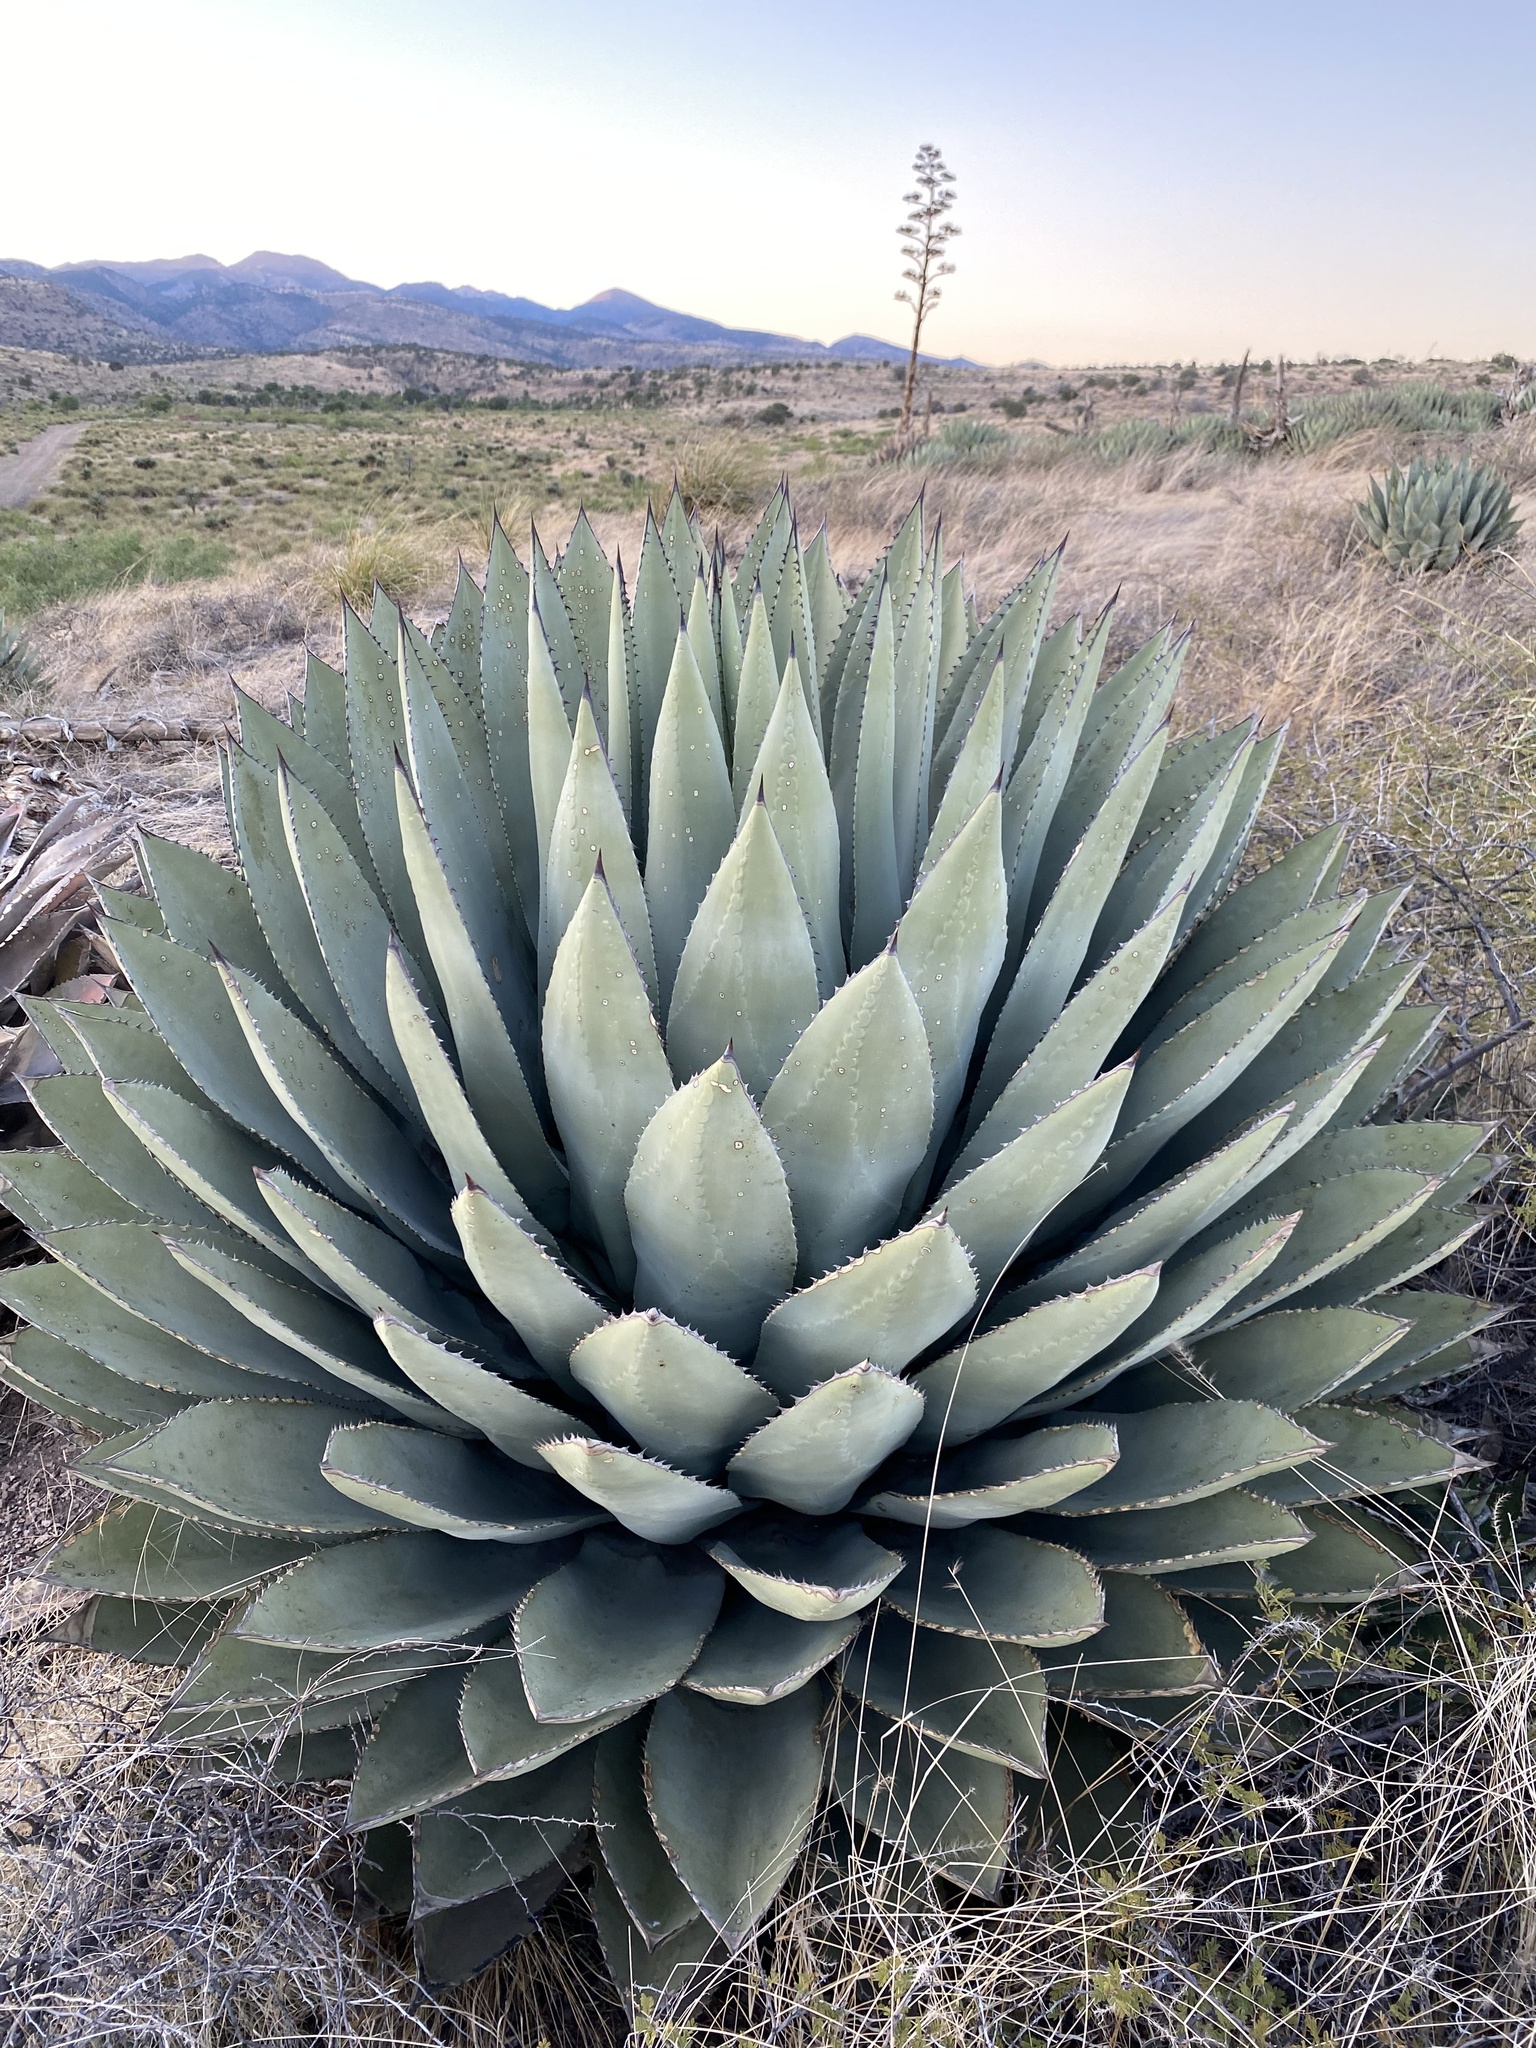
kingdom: Plantae
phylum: Tracheophyta
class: Liliopsida
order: Asparagales
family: Asparagaceae
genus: Agave
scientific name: Agave parryi
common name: Parry's agave
